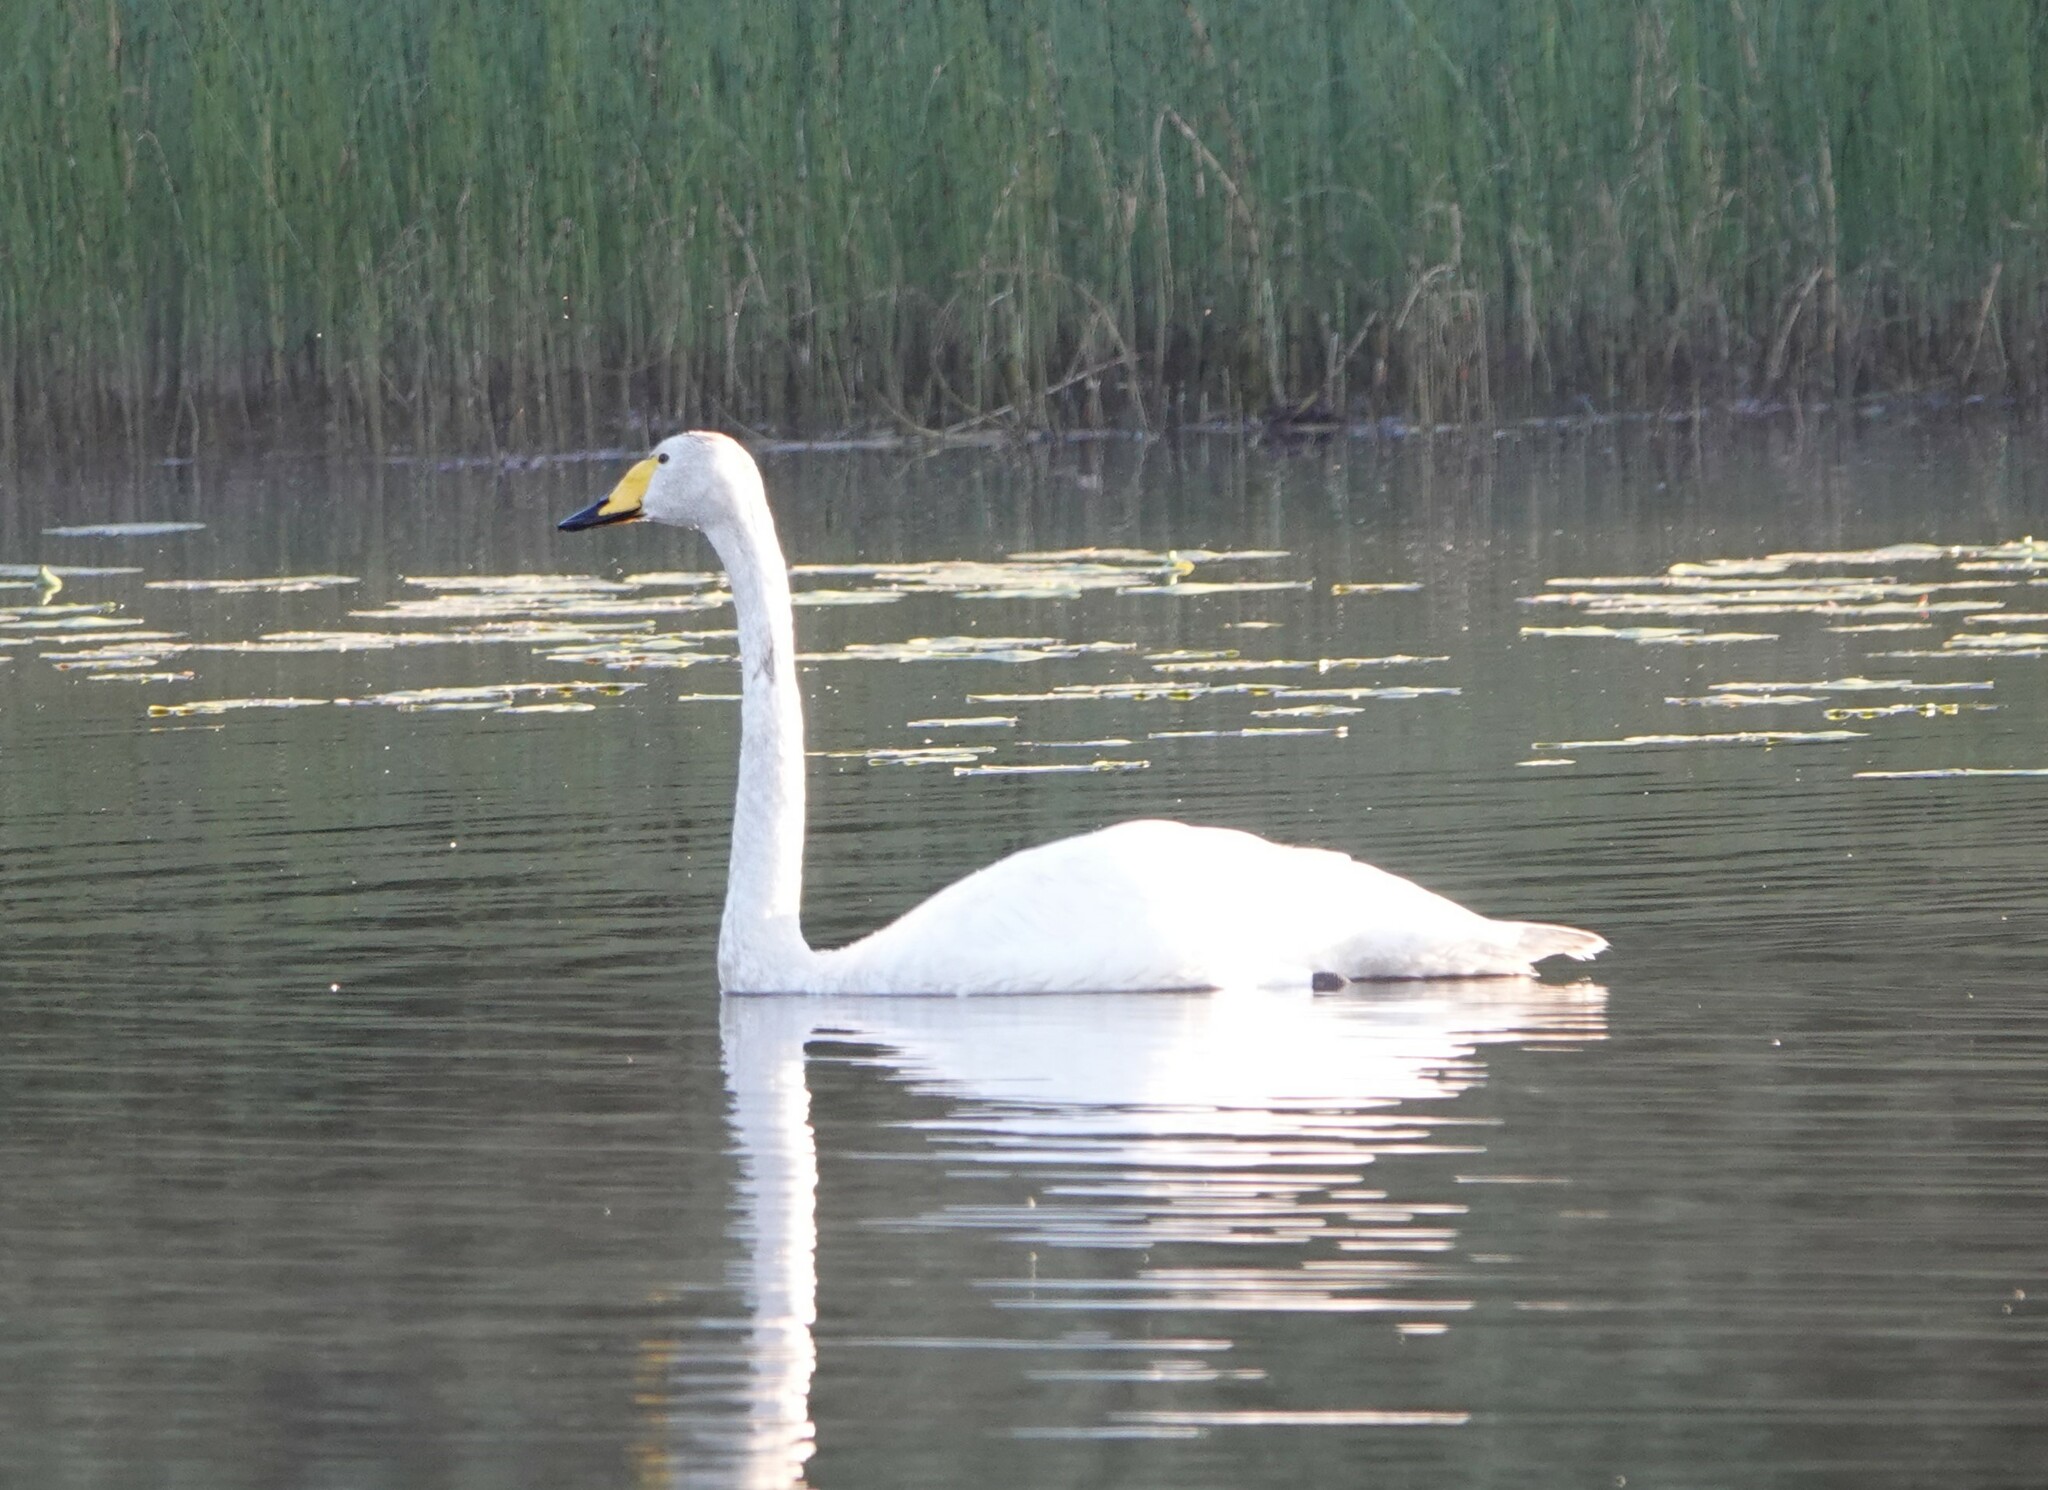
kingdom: Animalia
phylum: Chordata
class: Aves
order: Anseriformes
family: Anatidae
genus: Cygnus
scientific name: Cygnus cygnus
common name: Whooper swan
